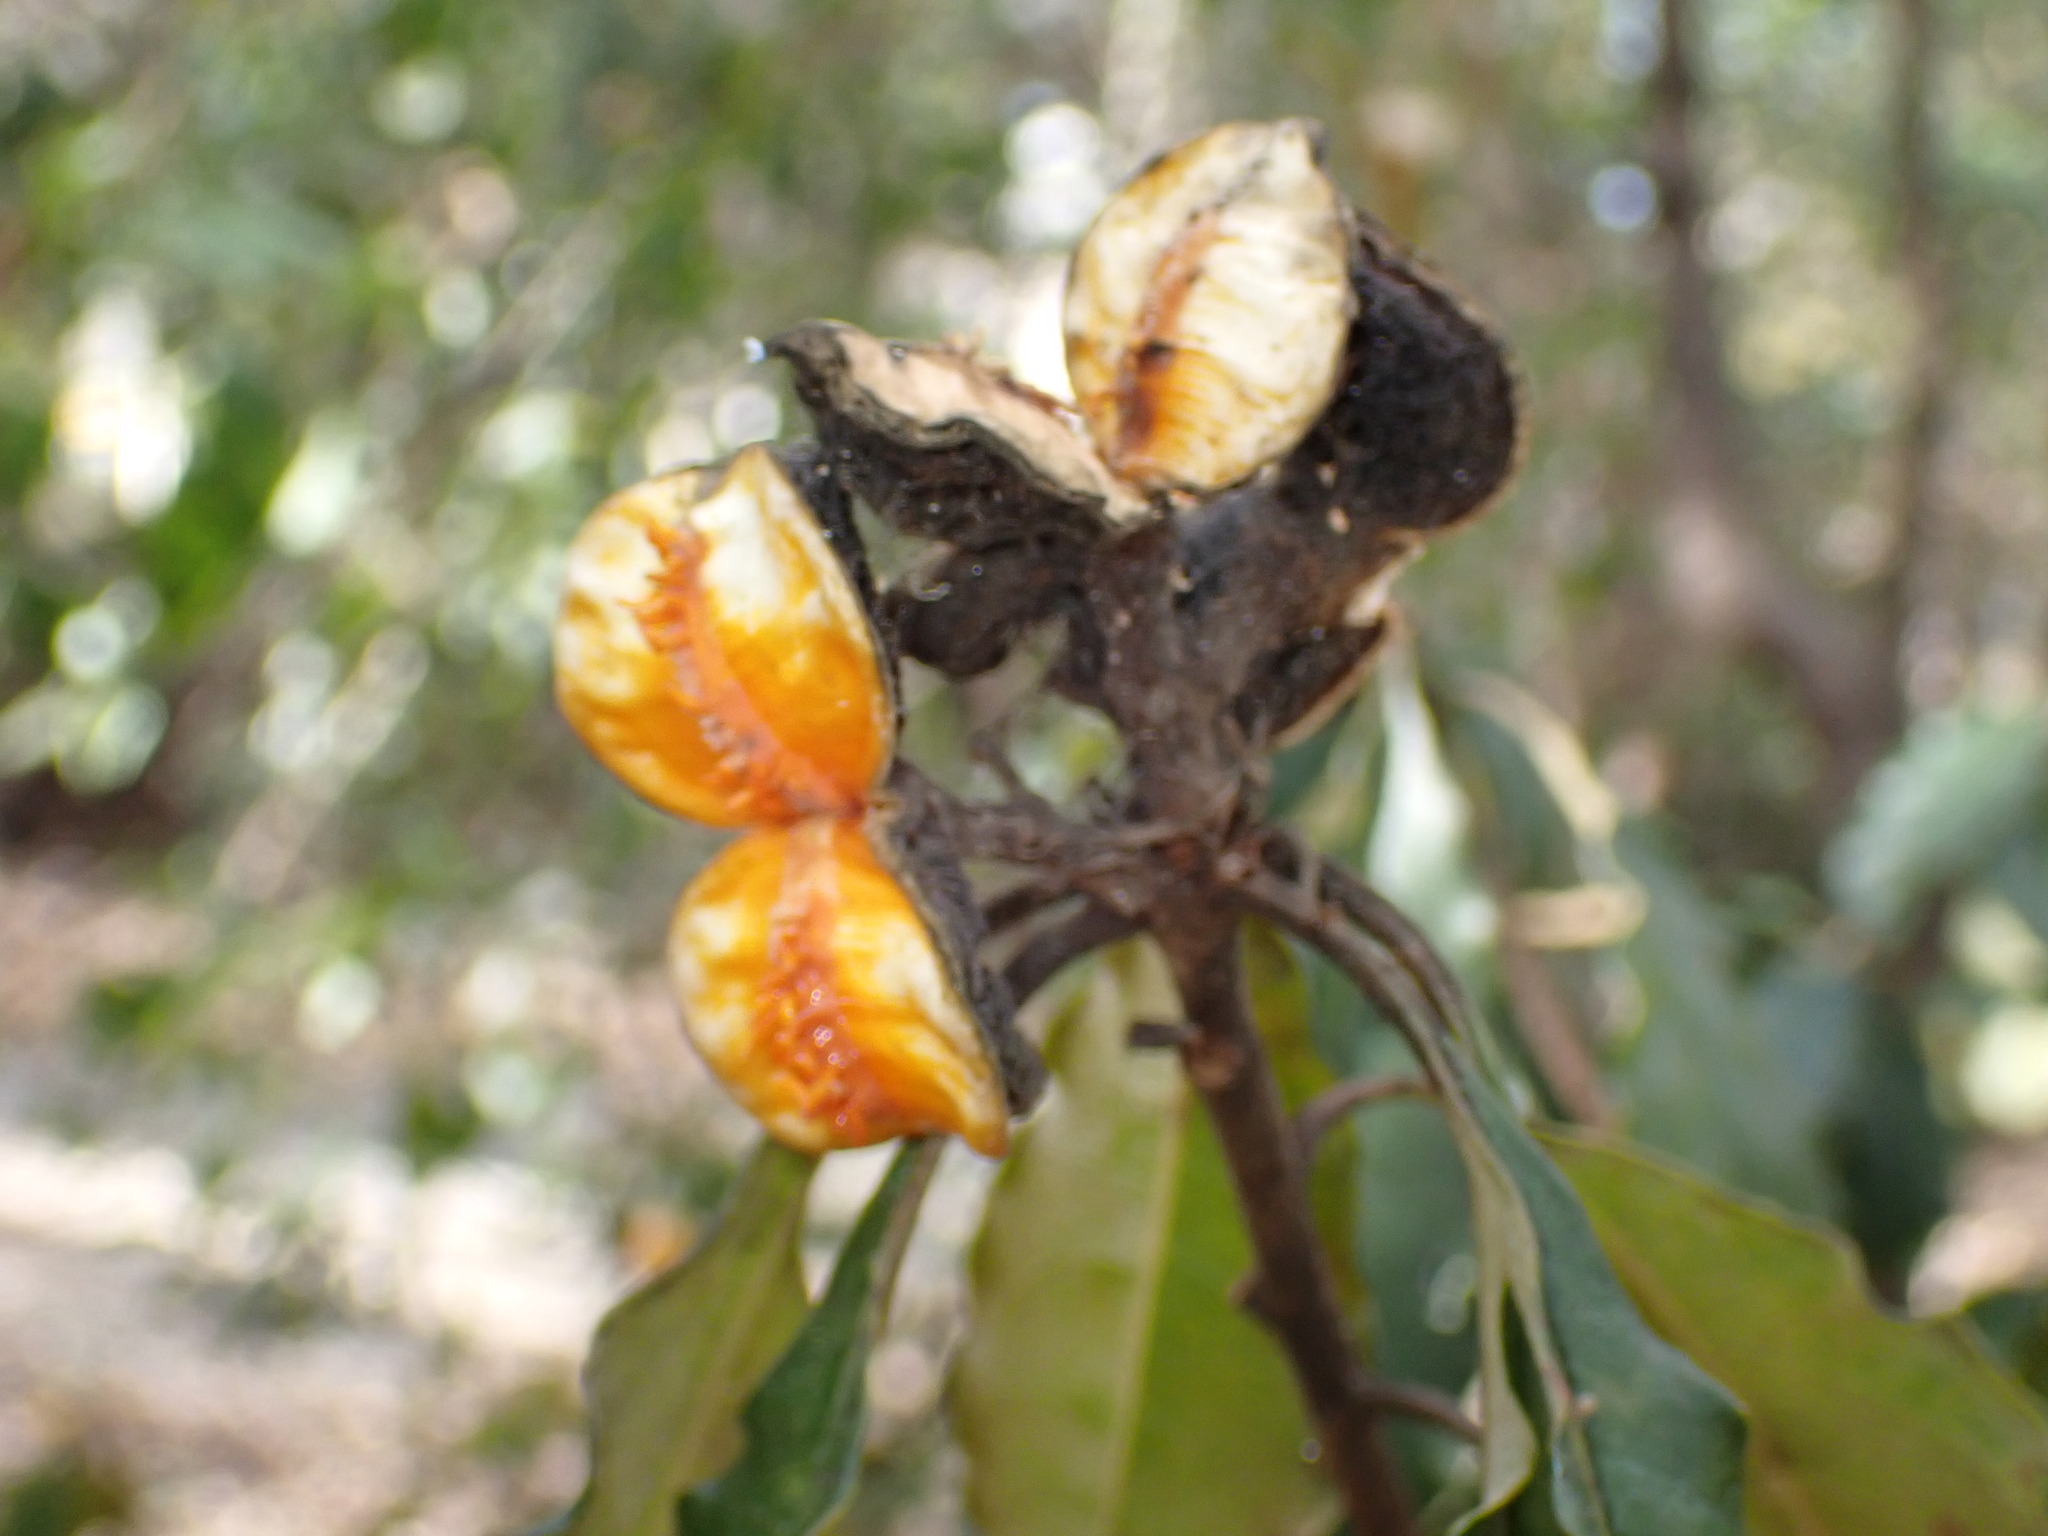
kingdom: Plantae
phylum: Tracheophyta
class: Magnoliopsida
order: Apiales
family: Pittosporaceae
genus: Pittosporum
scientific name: Pittosporum revolutum
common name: Brisbane-laurel
